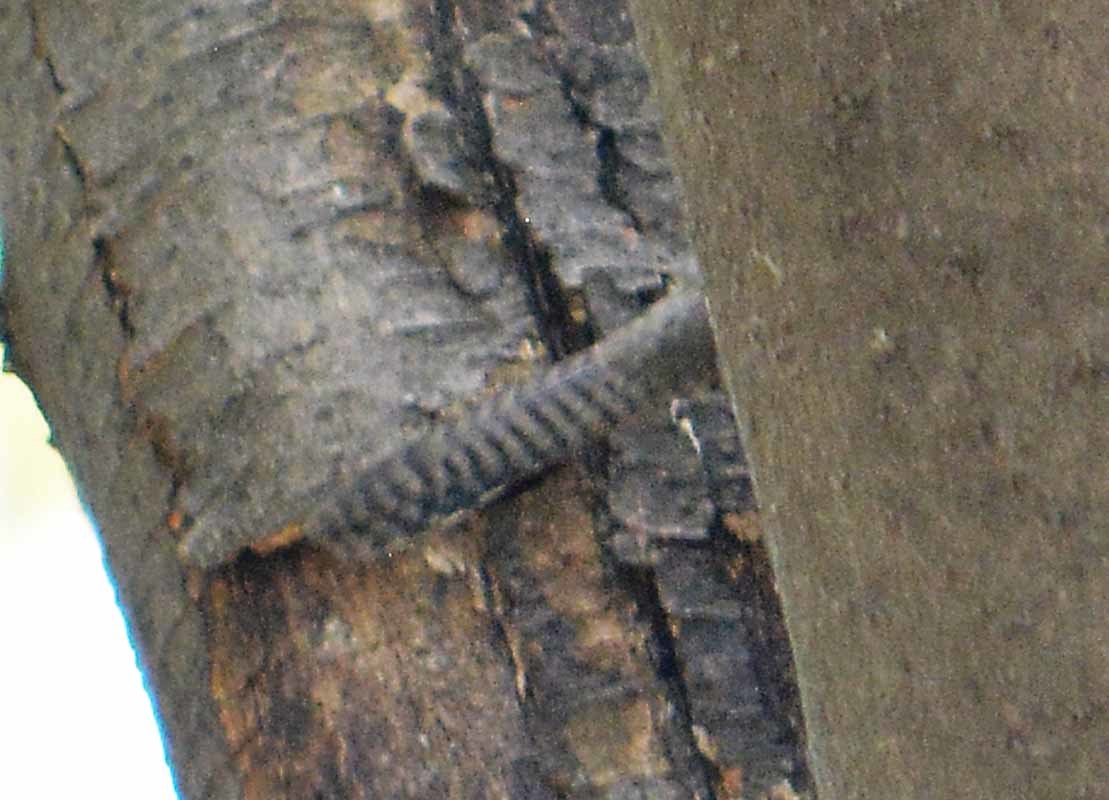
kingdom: Animalia
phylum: Chordata
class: Aves
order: Passeriformes
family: Troglodytidae
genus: Thryomanes
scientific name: Thryomanes bewickii
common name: Bewick's wren
